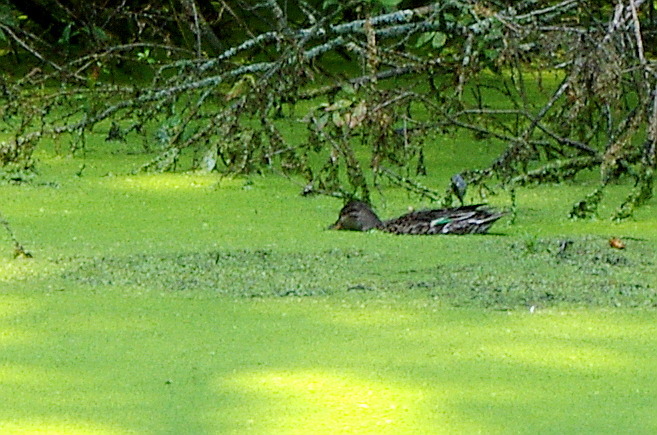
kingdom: Animalia
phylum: Chordata
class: Aves
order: Anseriformes
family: Anatidae
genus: Anas
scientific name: Anas crecca
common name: Eurasian teal
